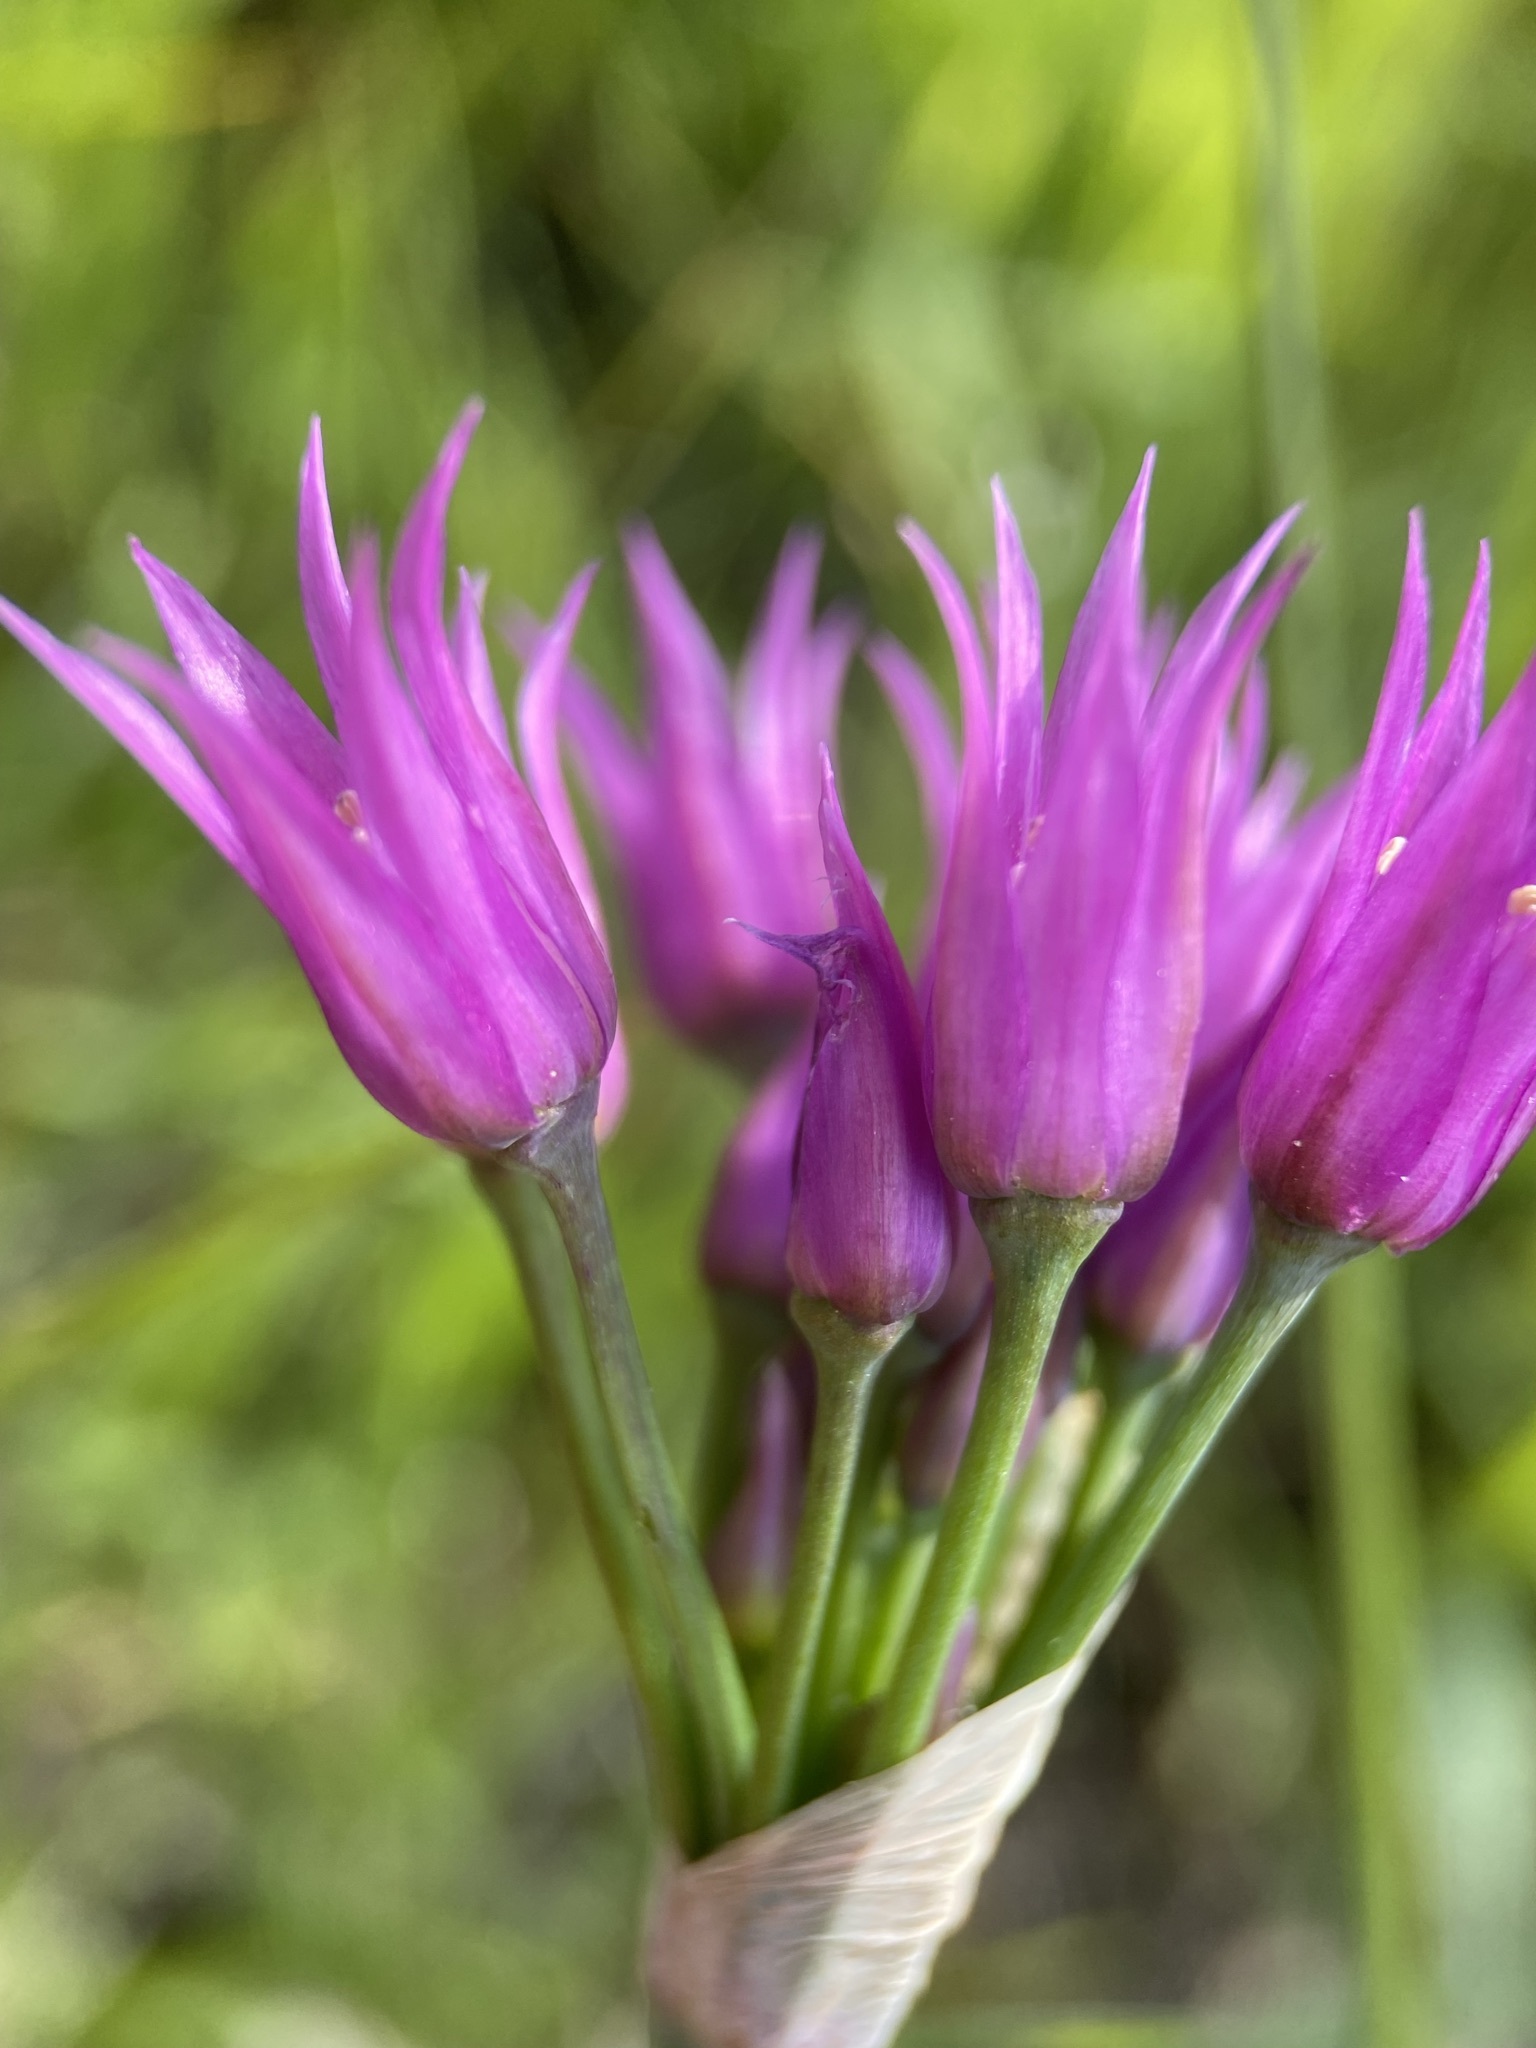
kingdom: Plantae
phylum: Tracheophyta
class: Liliopsida
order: Asparagales
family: Amaryllidaceae
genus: Allium
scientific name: Allium brevistylum
